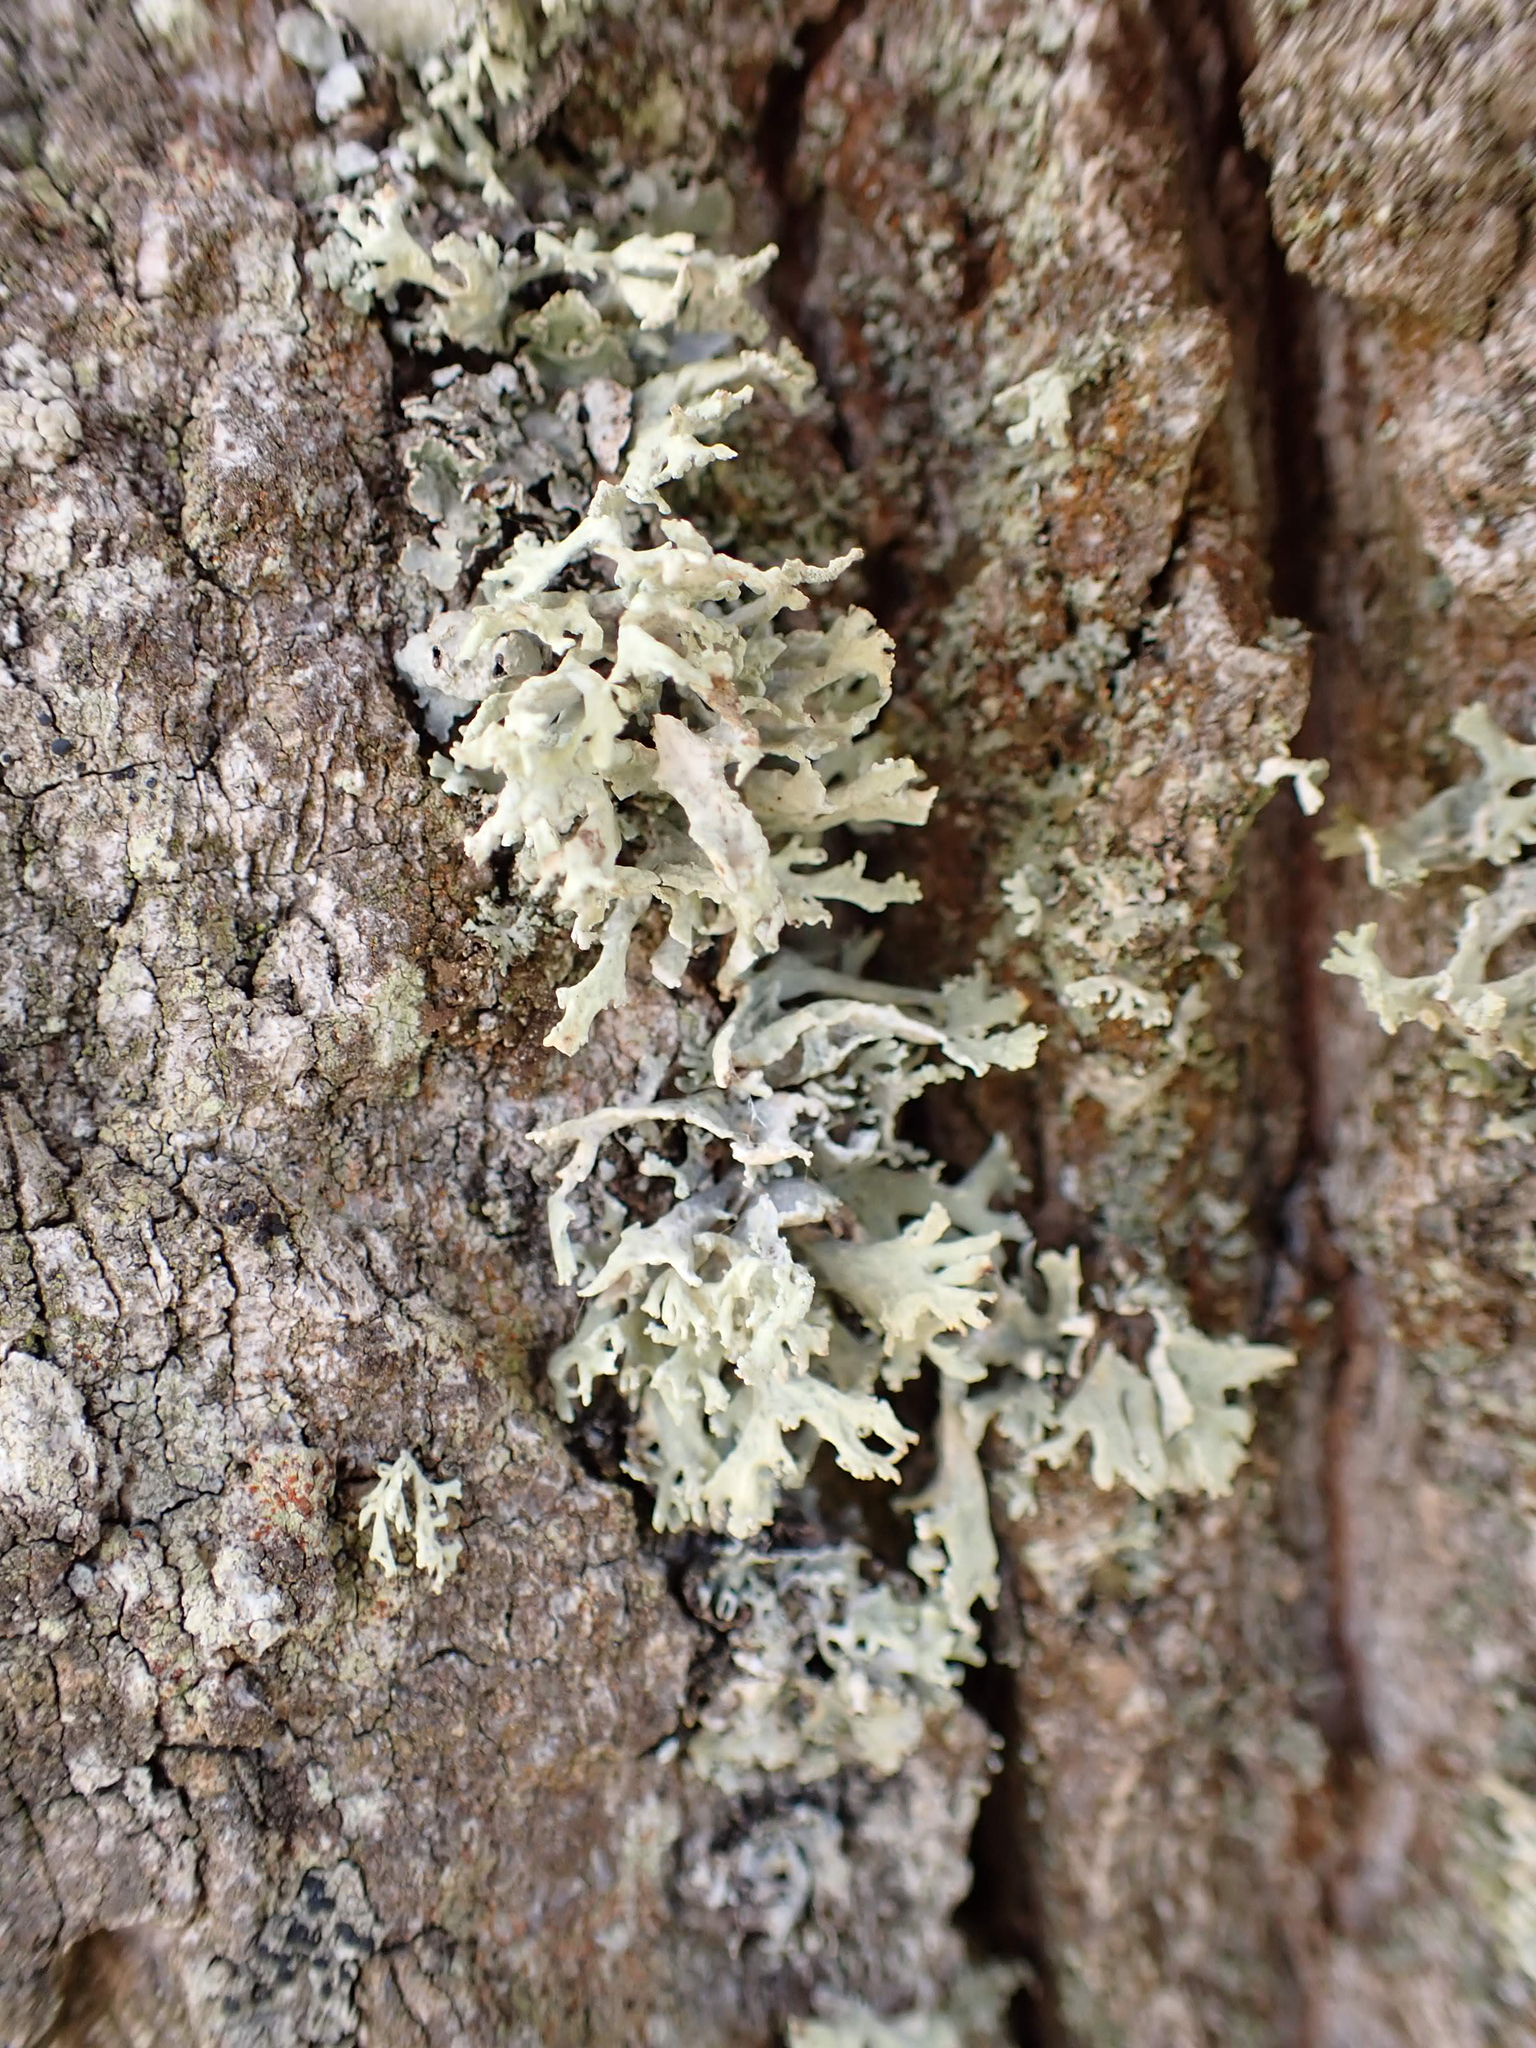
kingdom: Fungi
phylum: Ascomycota
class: Lecanoromycetes
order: Lecanorales
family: Parmeliaceae
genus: Evernia
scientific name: Evernia prunastri
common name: Oak moss
